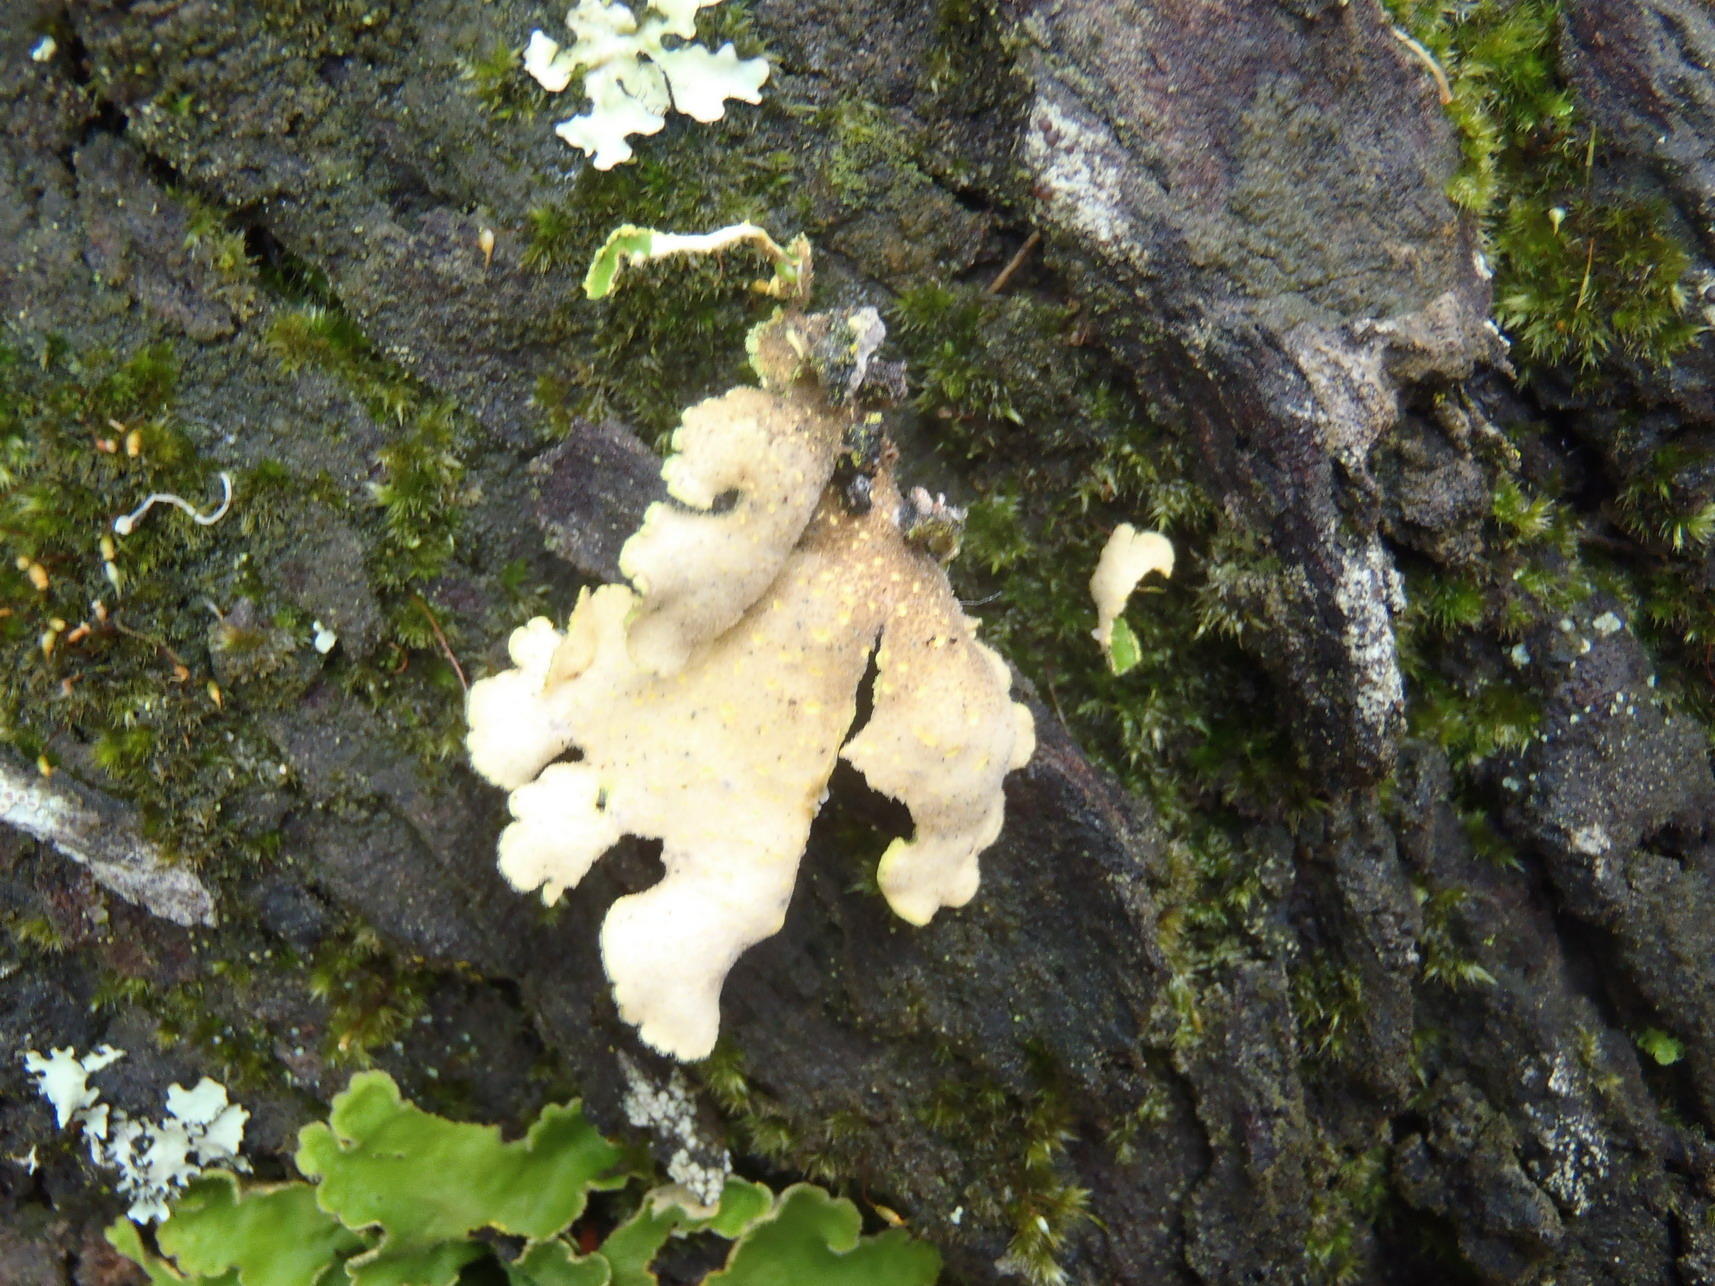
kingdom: Fungi
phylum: Ascomycota
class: Lecanoromycetes
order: Peltigerales
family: Lobariaceae
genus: Pseudocyphellaria
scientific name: Pseudocyphellaria aurata
